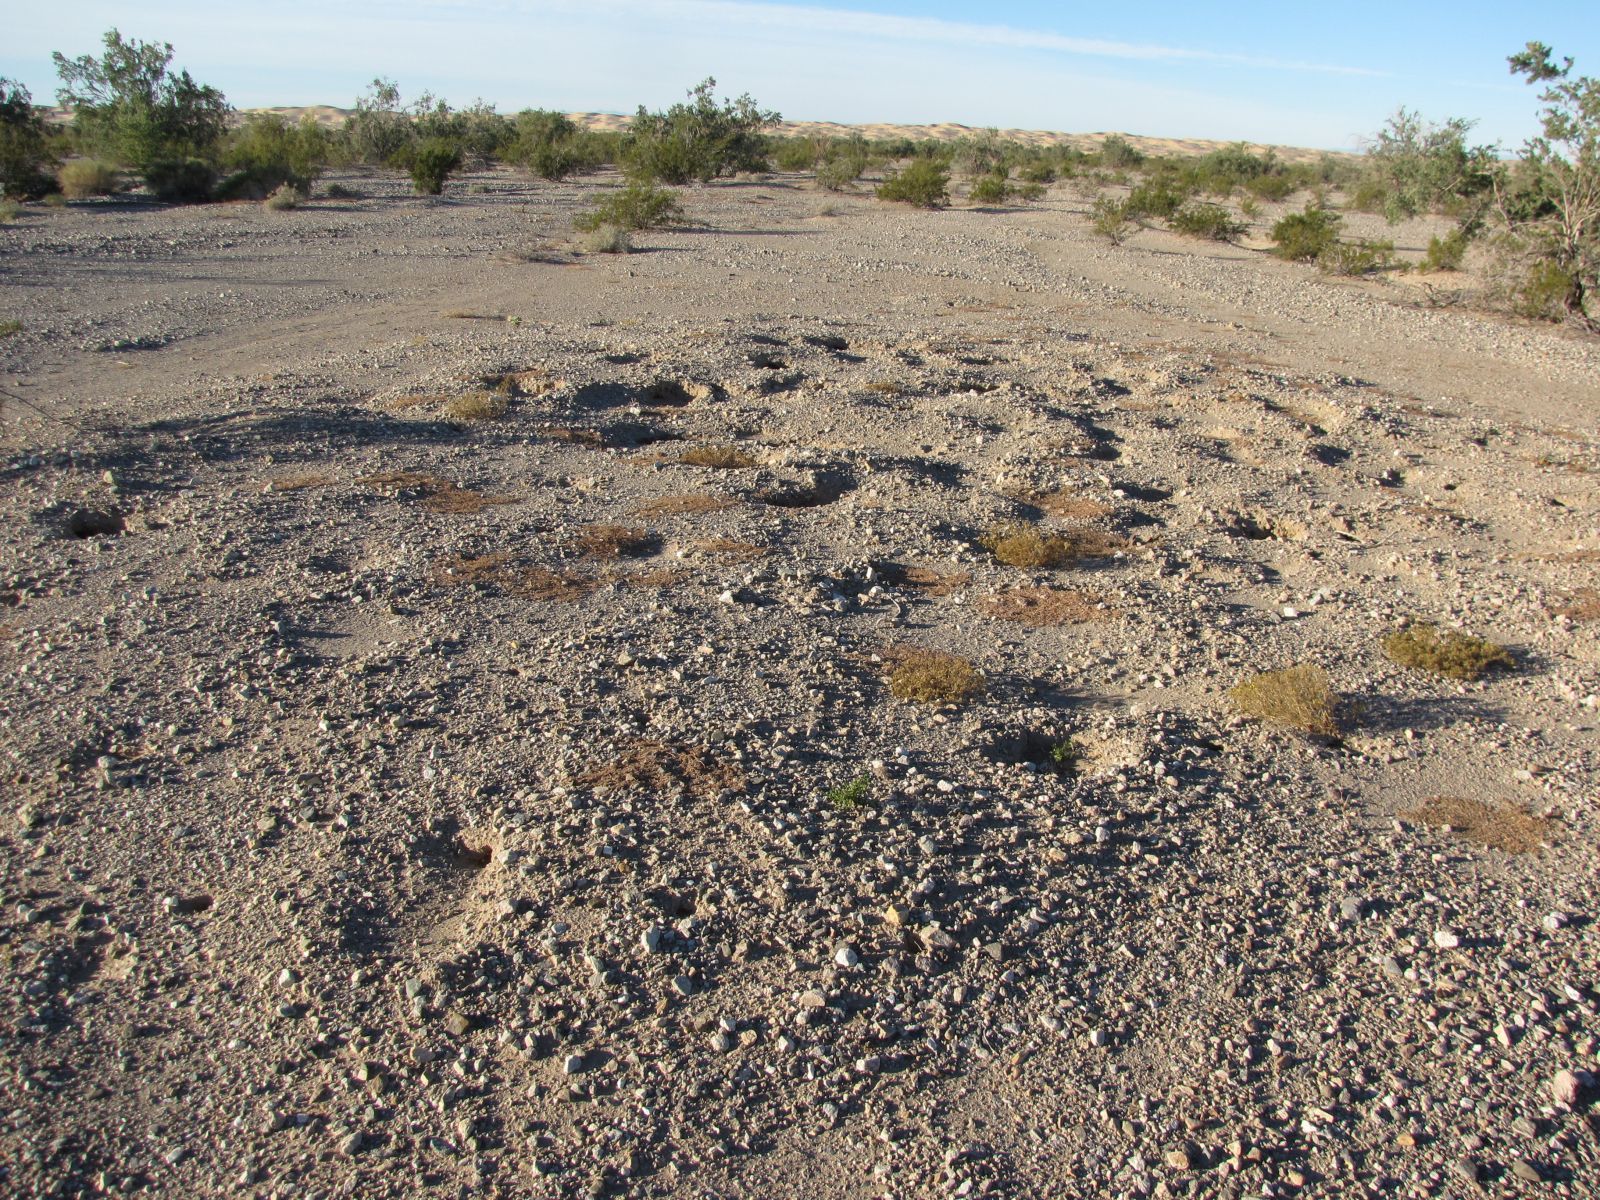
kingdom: Animalia
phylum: Chordata
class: Mammalia
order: Rodentia
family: Sciuridae
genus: Xerospermophilus
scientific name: Xerospermophilus tereticaudus
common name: Round-tailed ground squirrel
